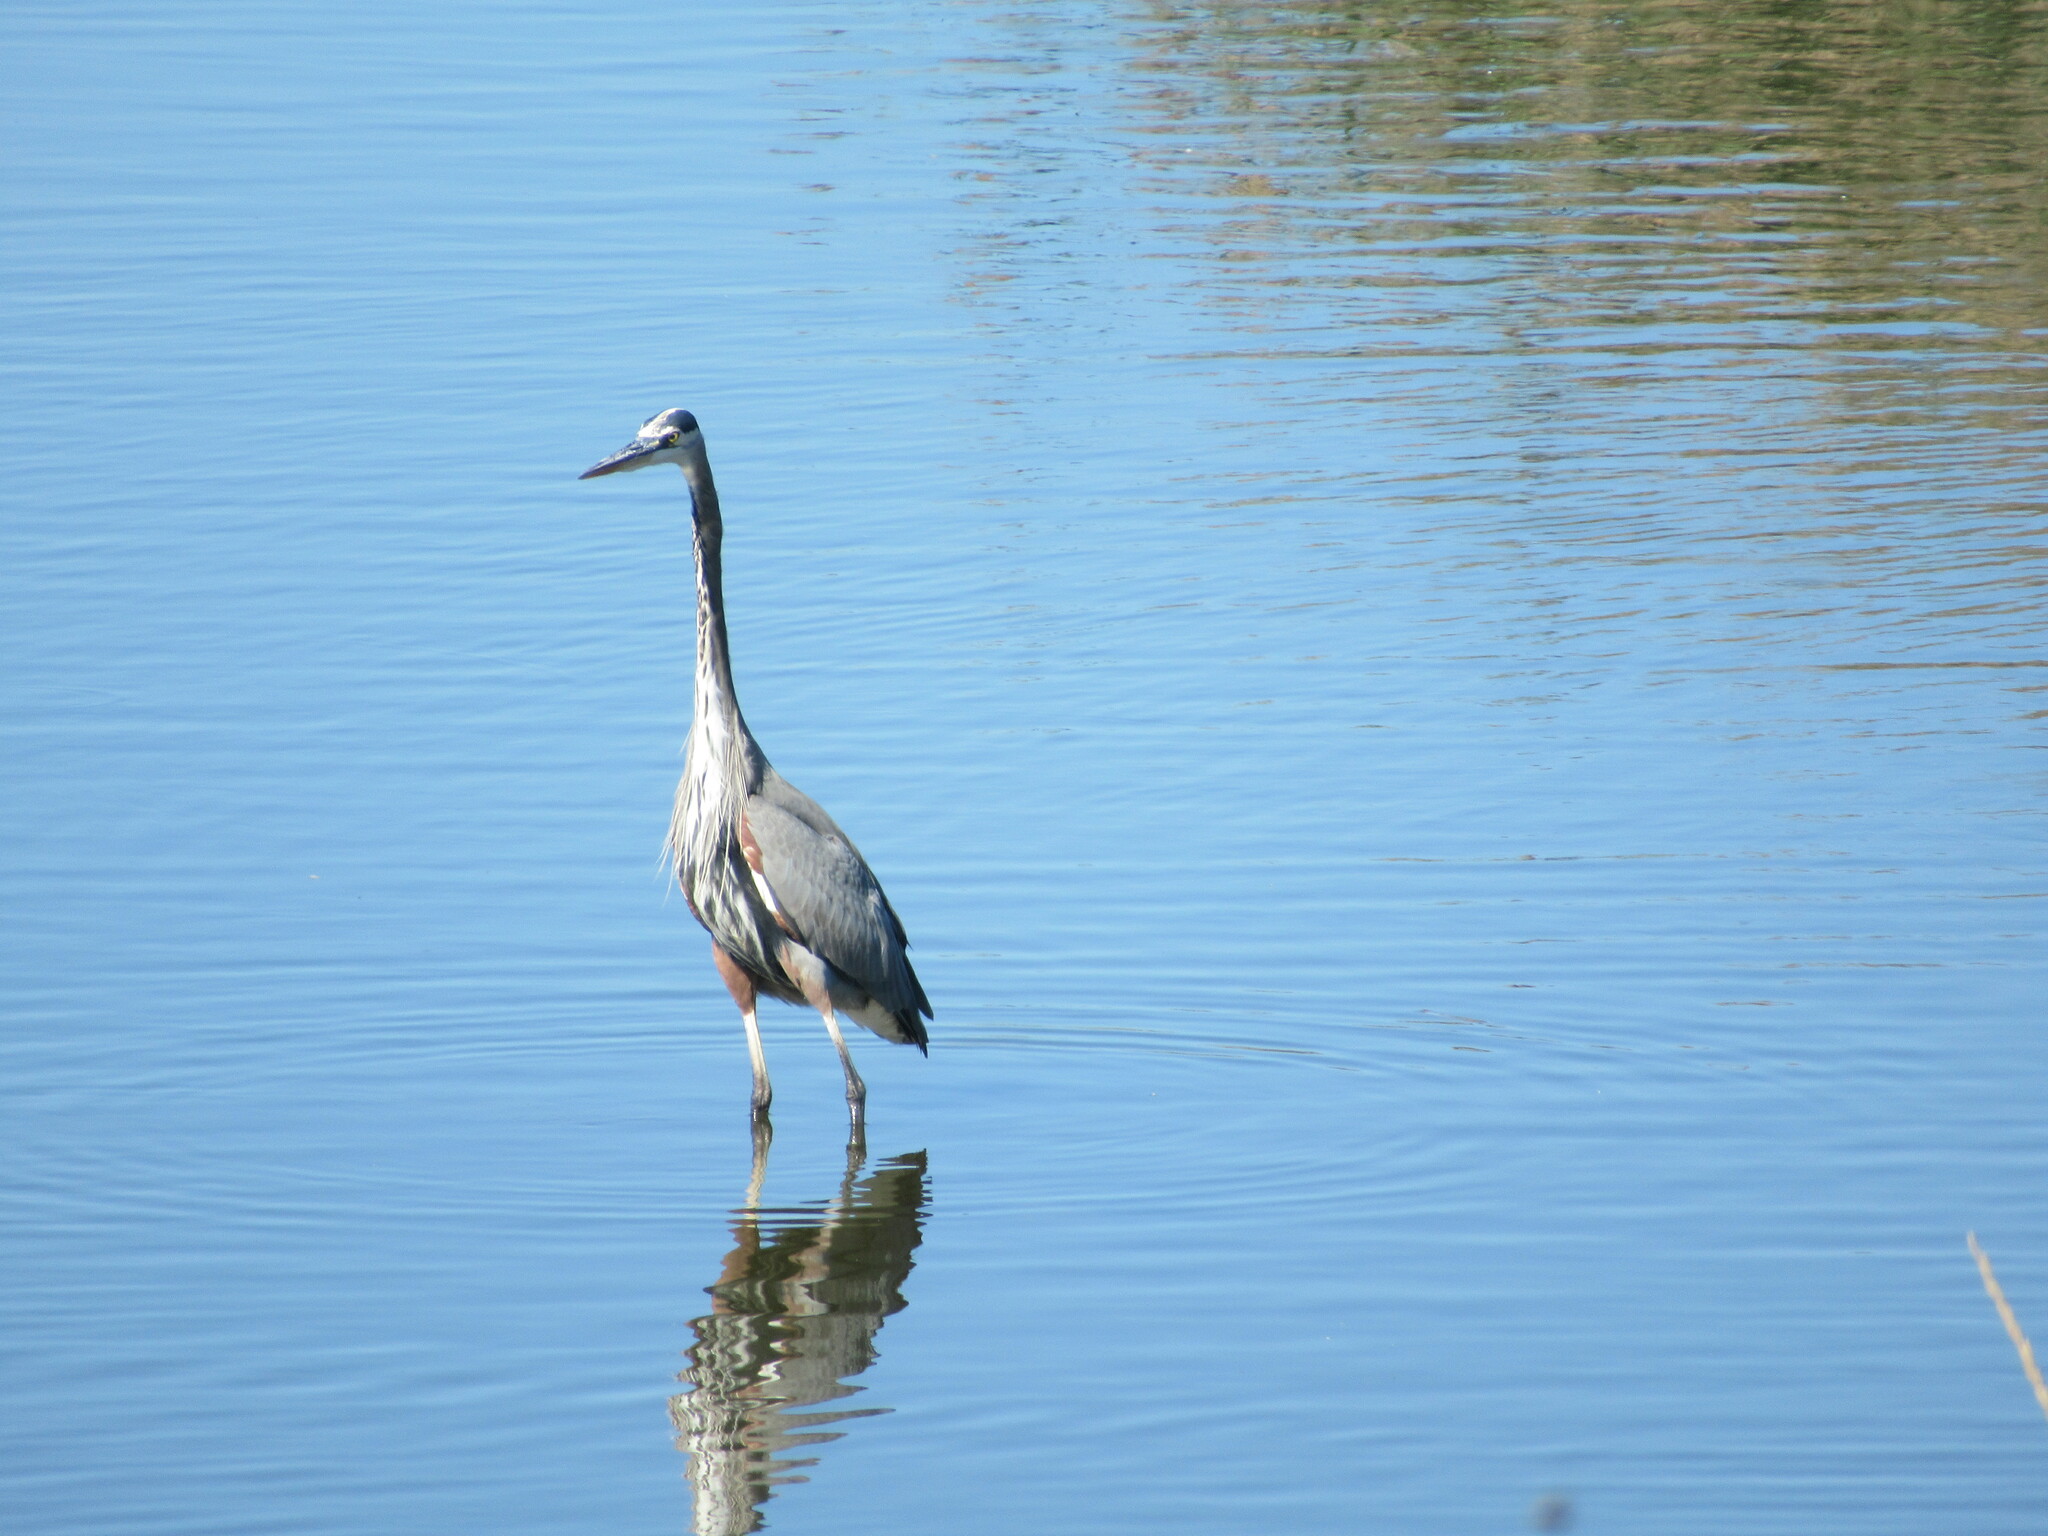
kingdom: Animalia
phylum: Chordata
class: Aves
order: Pelecaniformes
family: Ardeidae
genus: Ardea
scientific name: Ardea herodias
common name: Great blue heron
